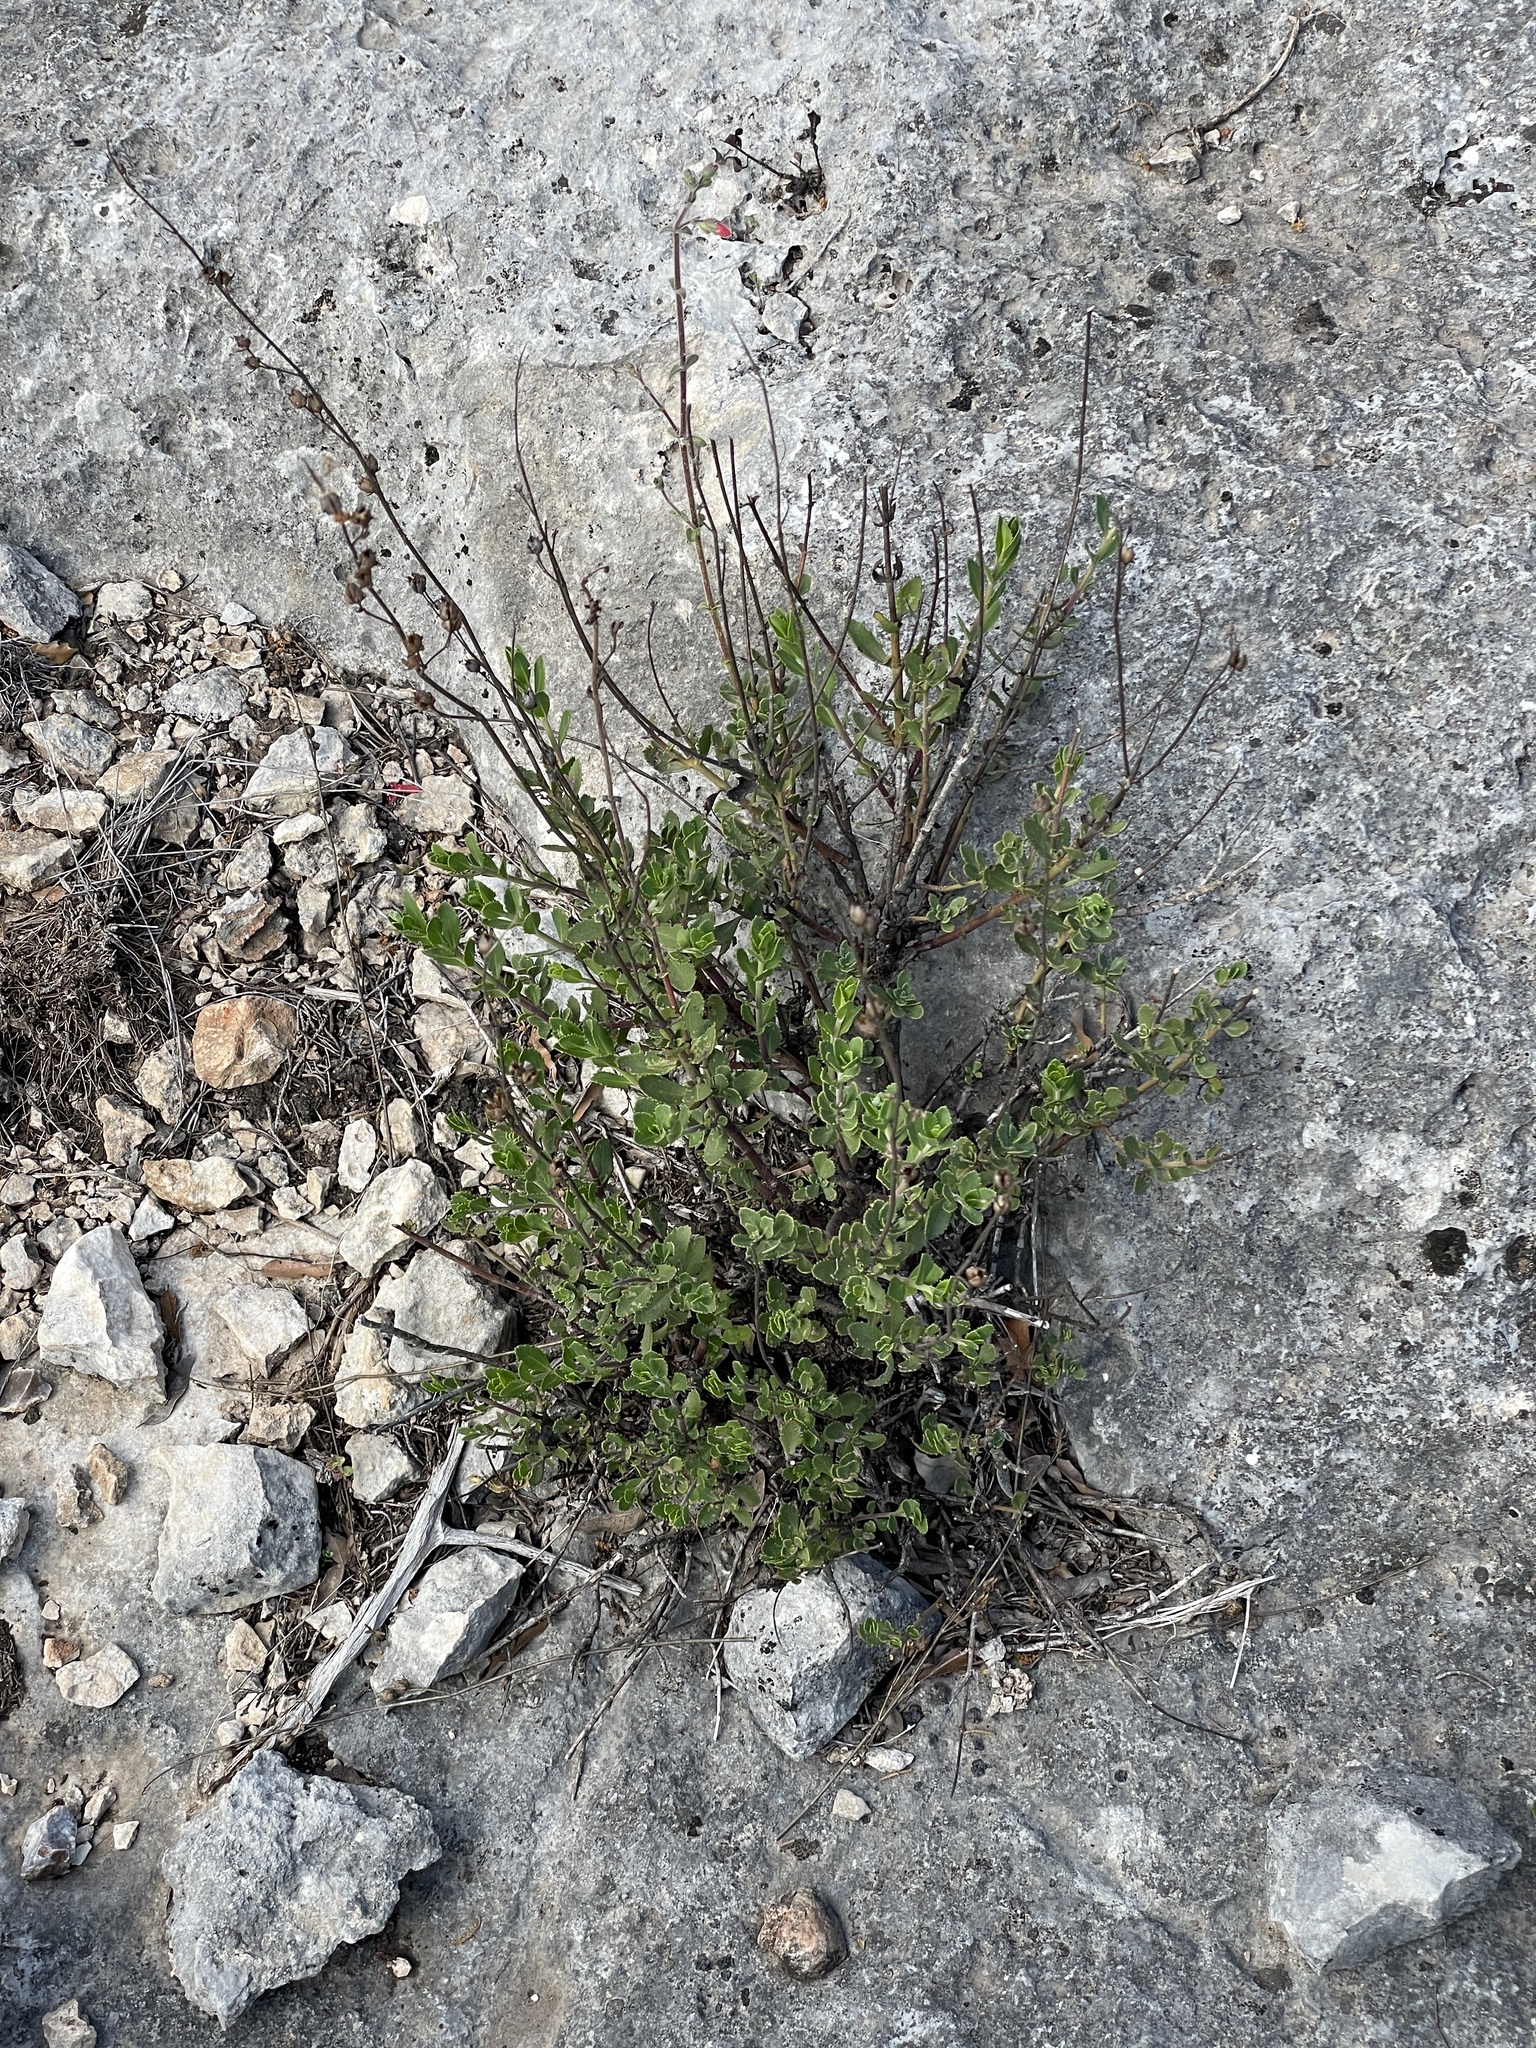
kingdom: Plantae
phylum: Tracheophyta
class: Magnoliopsida
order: Lamiales
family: Plantaginaceae
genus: Penstemon
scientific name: Penstemon baccharifolius
